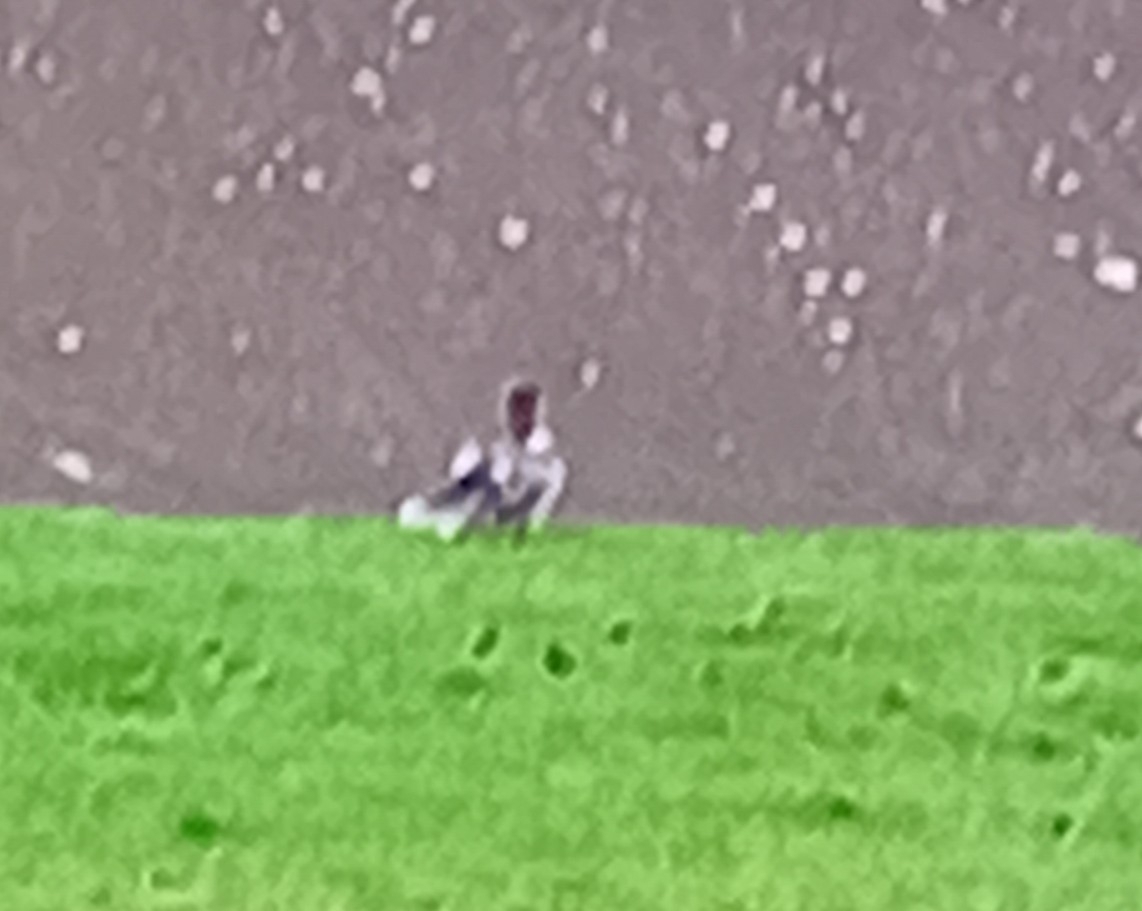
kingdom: Animalia
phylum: Chordata
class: Aves
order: Anseriformes
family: Anatidae
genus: Mergus
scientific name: Mergus merganser
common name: Common merganser
